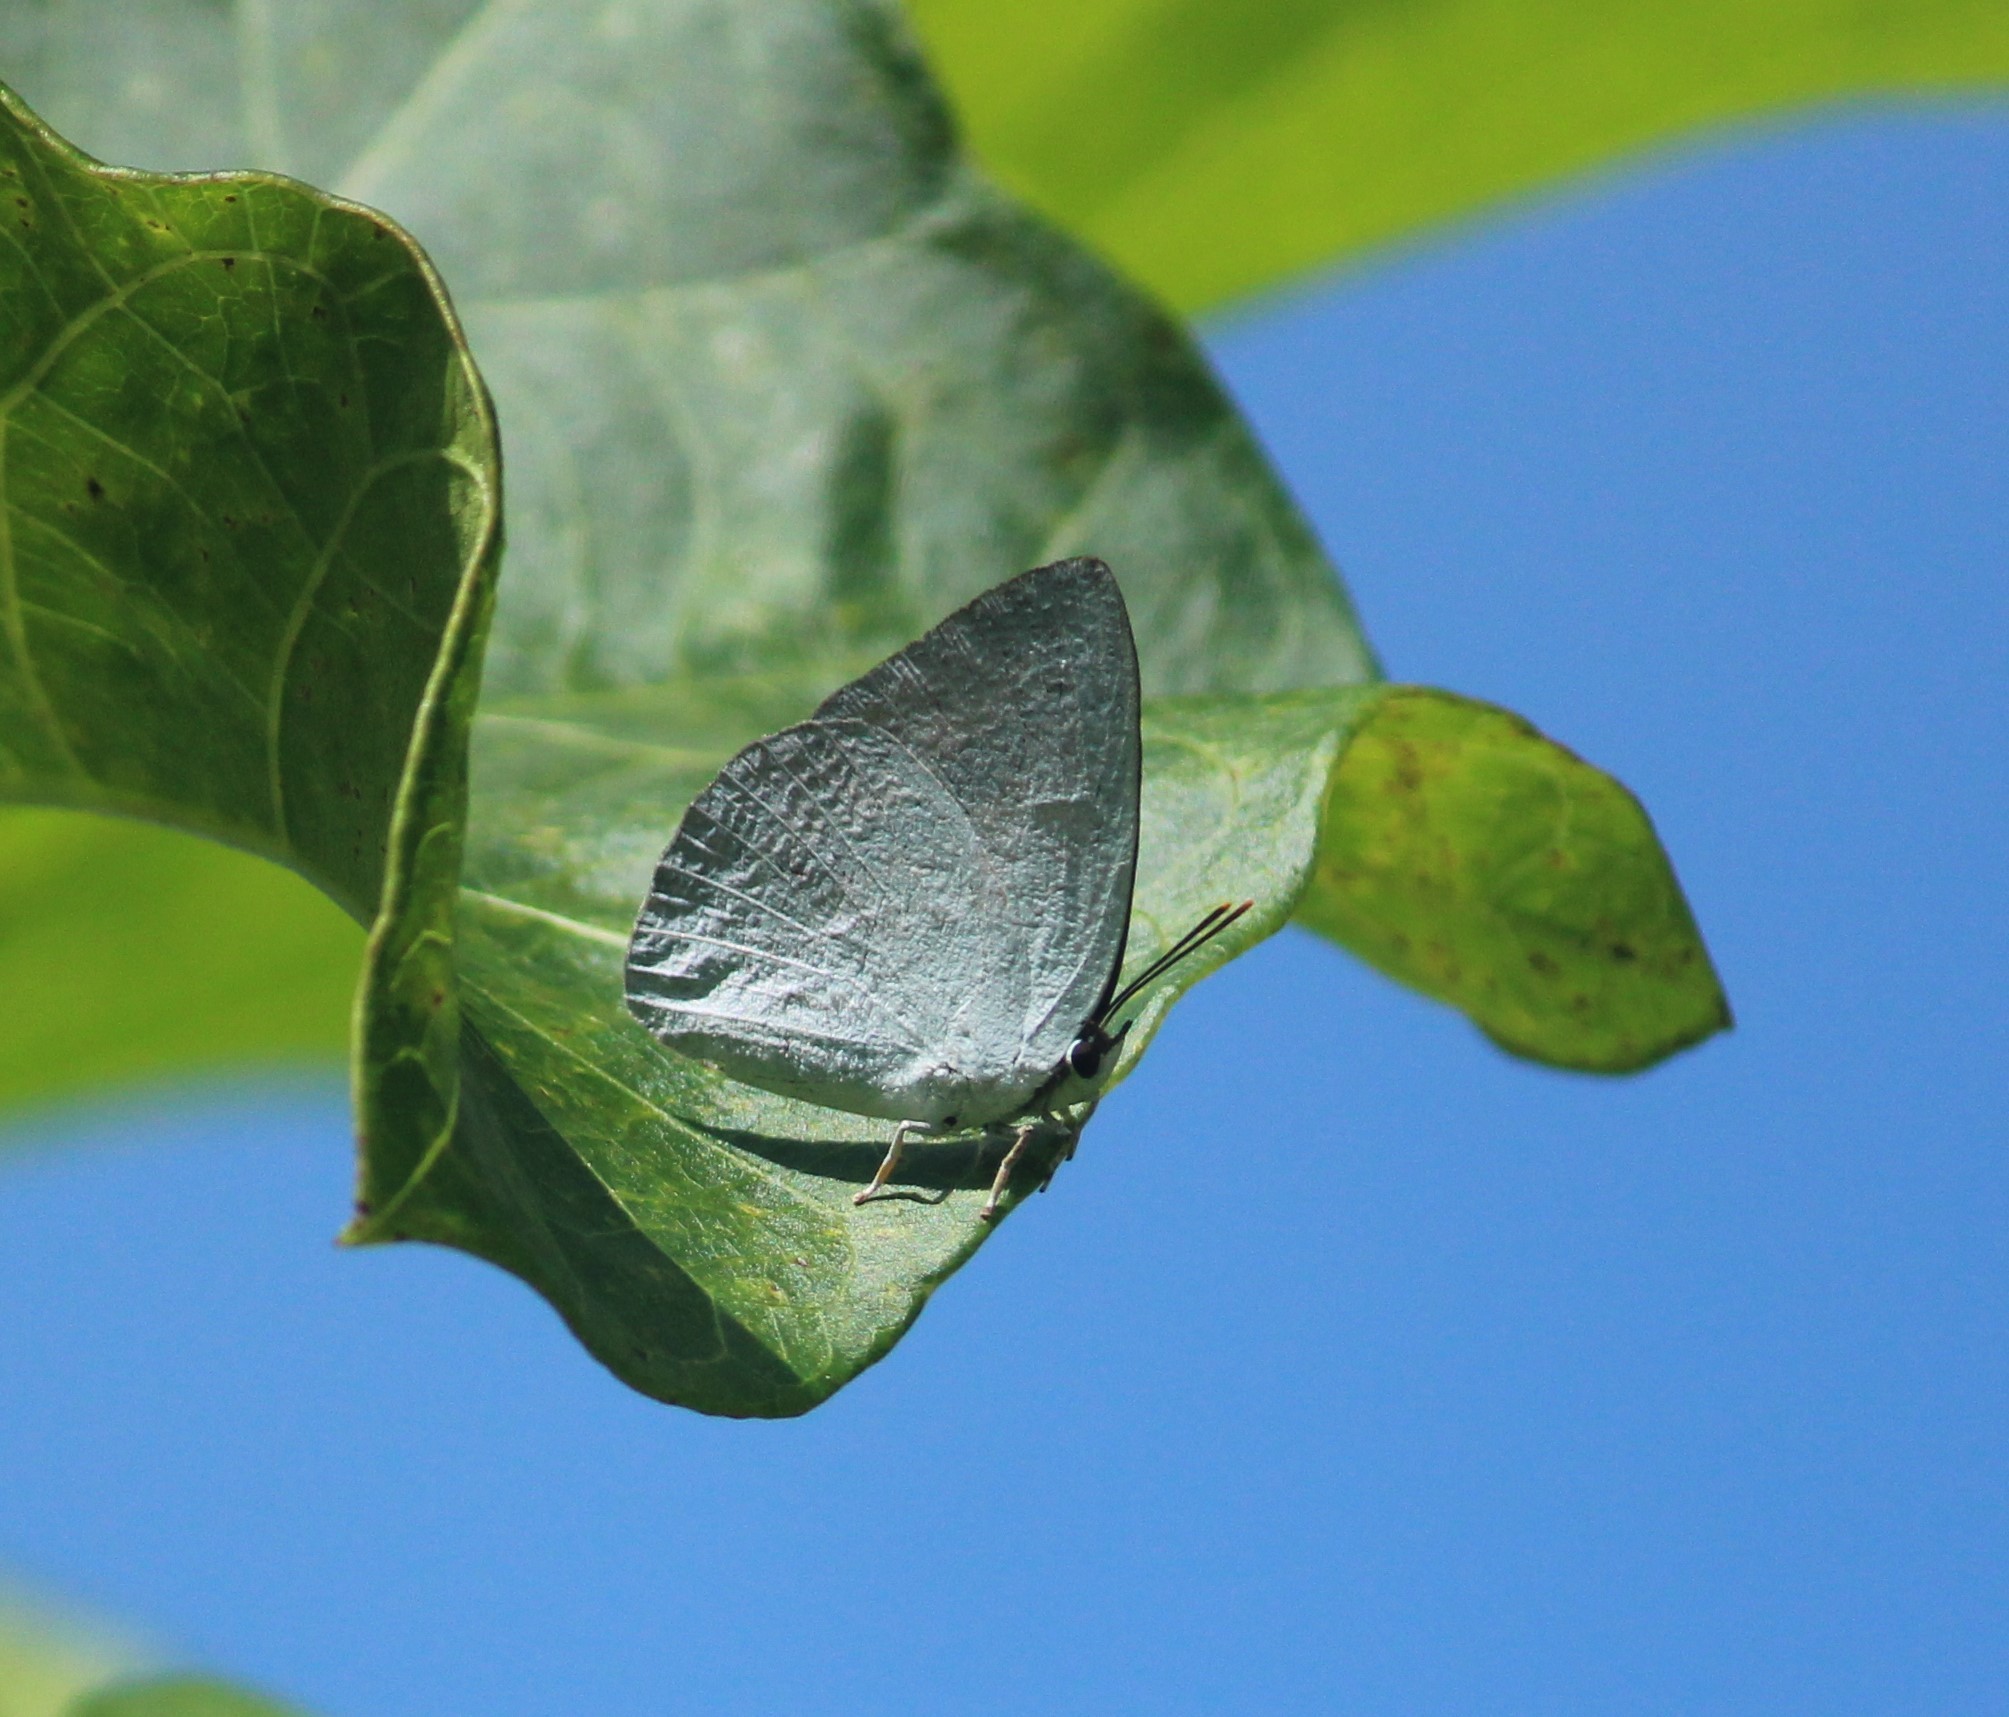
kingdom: Animalia
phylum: Arthropoda
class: Insecta
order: Lepidoptera
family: Lycaenidae
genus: Curetis
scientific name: Curetis thetis
